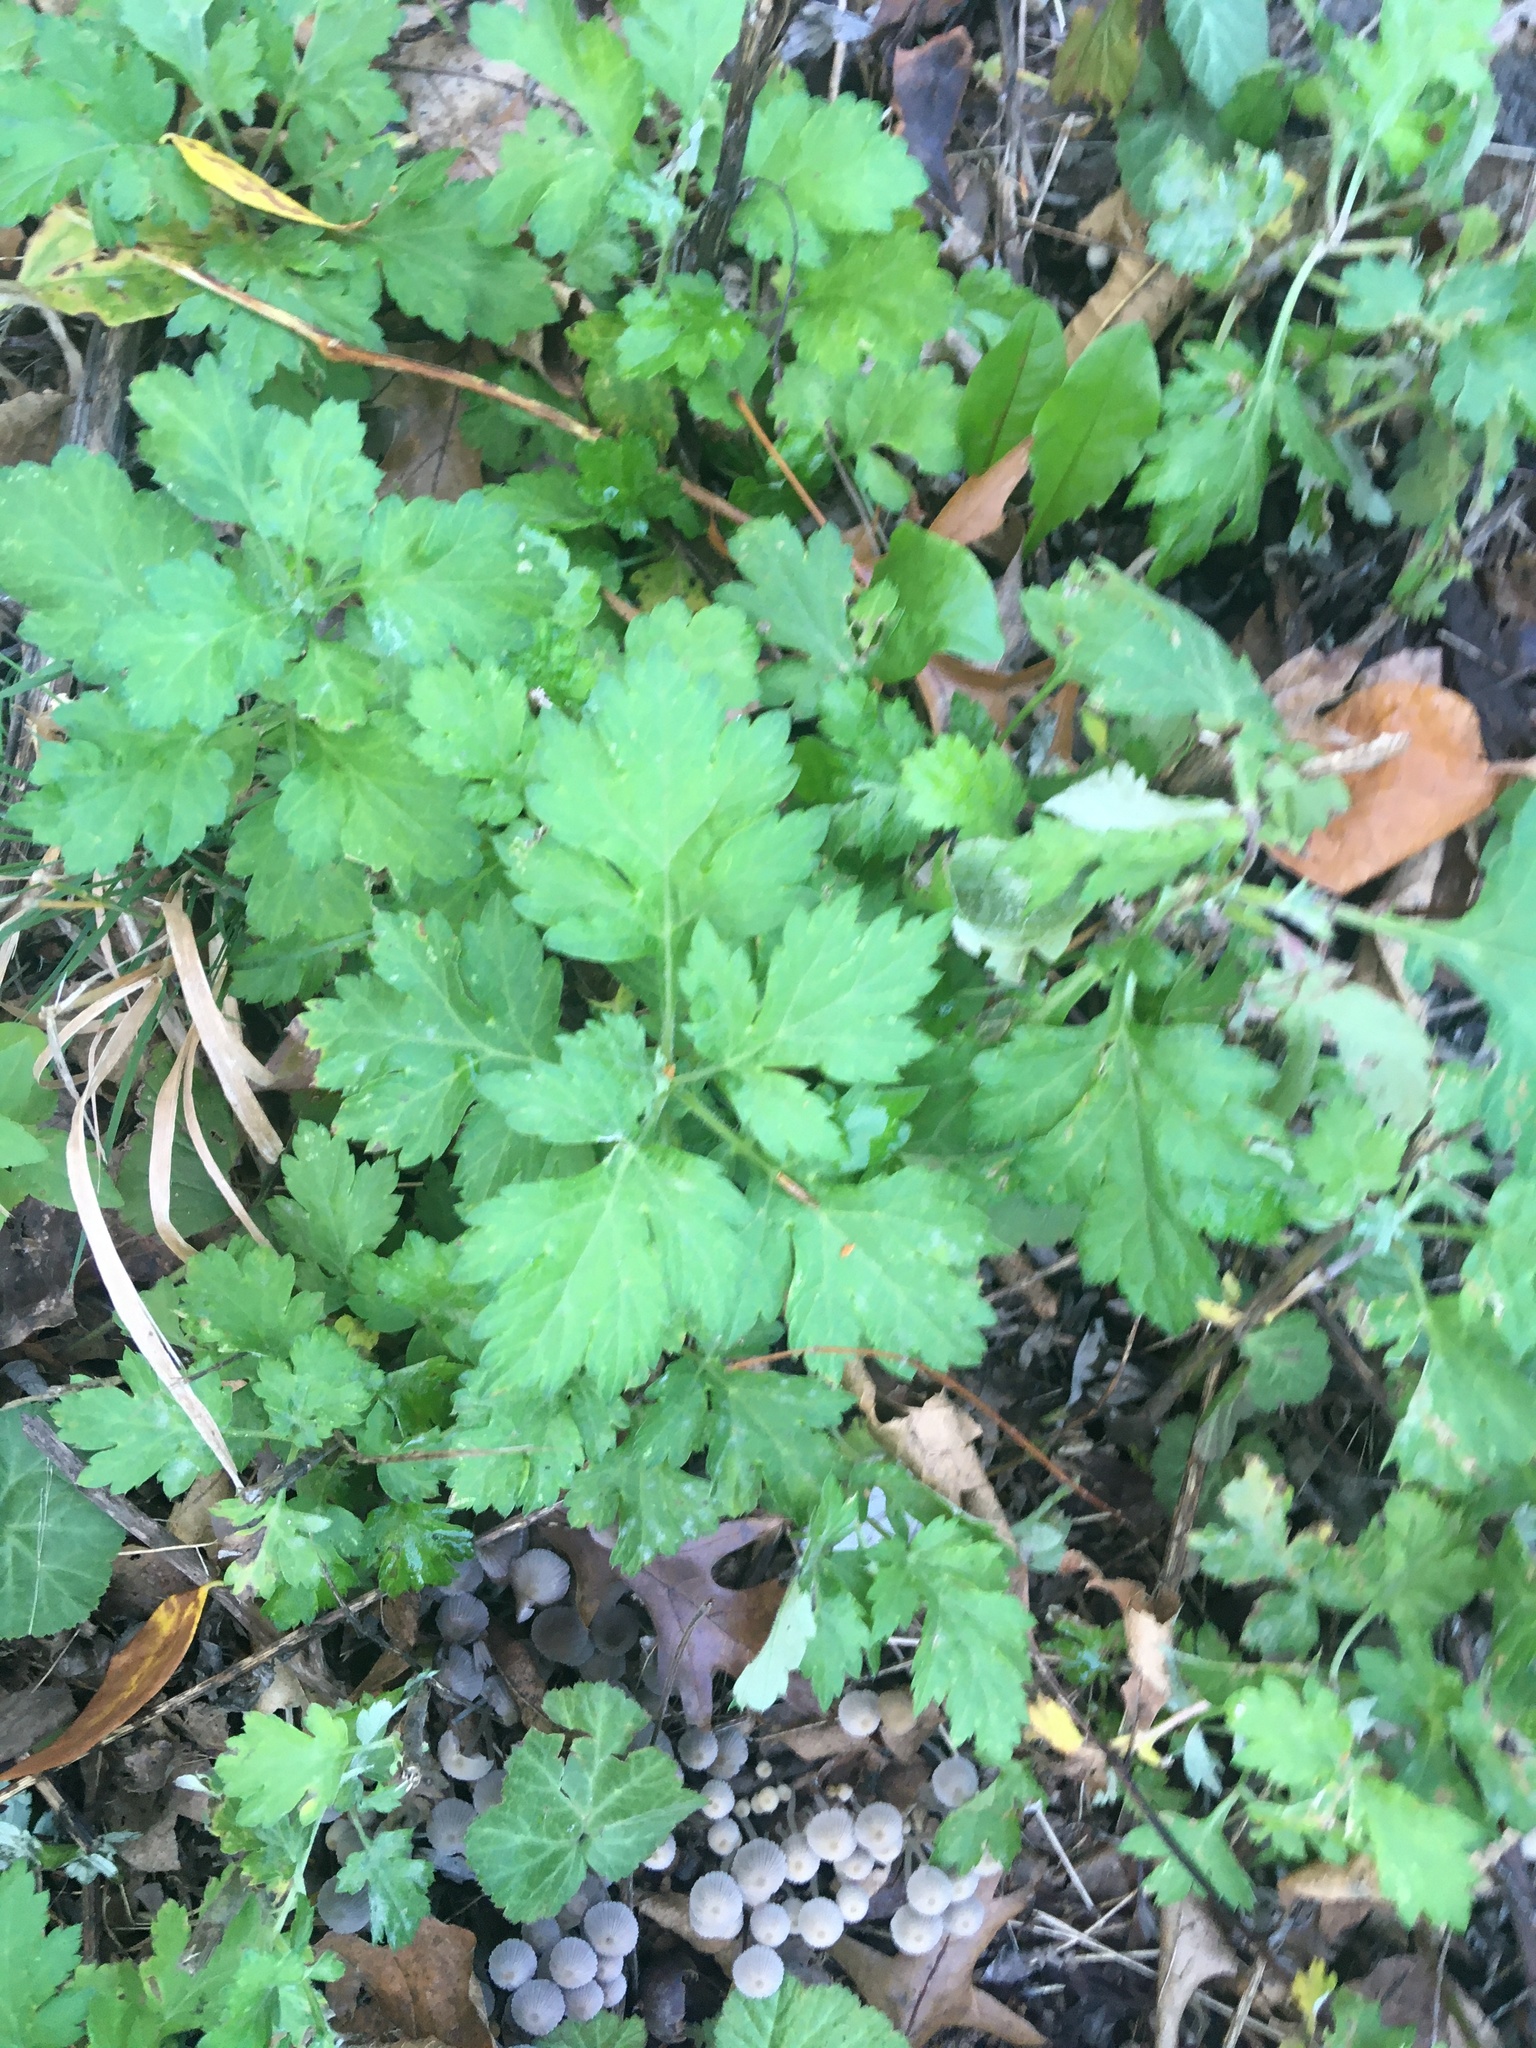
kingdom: Plantae
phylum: Tracheophyta
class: Magnoliopsida
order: Asterales
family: Asteraceae
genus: Artemisia
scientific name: Artemisia vulgaris
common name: Mugwort
